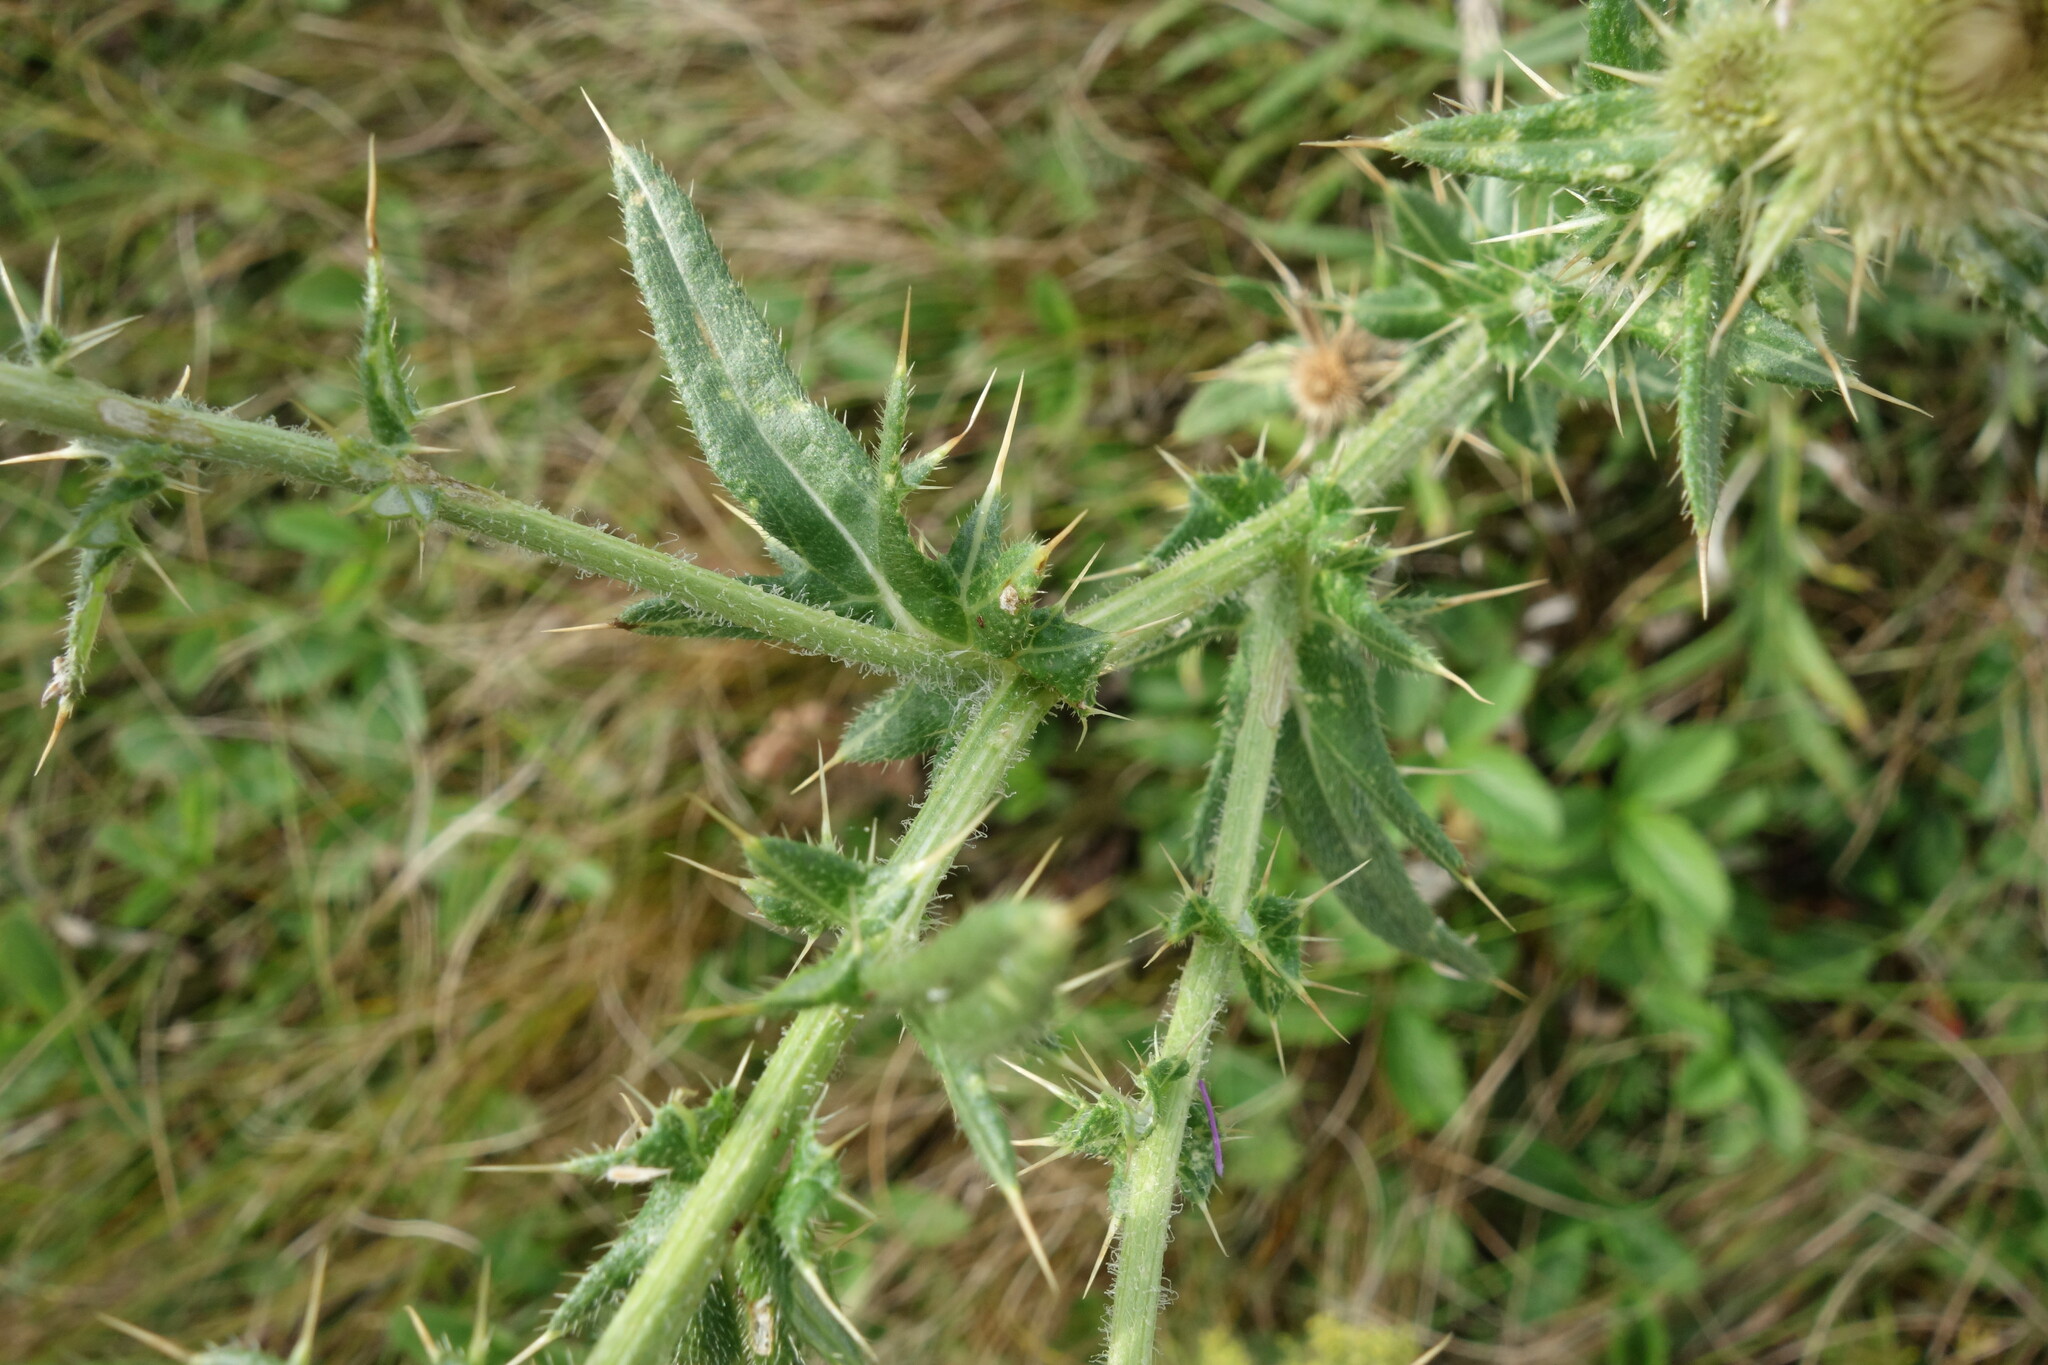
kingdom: Plantae
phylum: Tracheophyta
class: Magnoliopsida
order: Asterales
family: Asteraceae
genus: Cirsium
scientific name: Cirsium serrulatum
